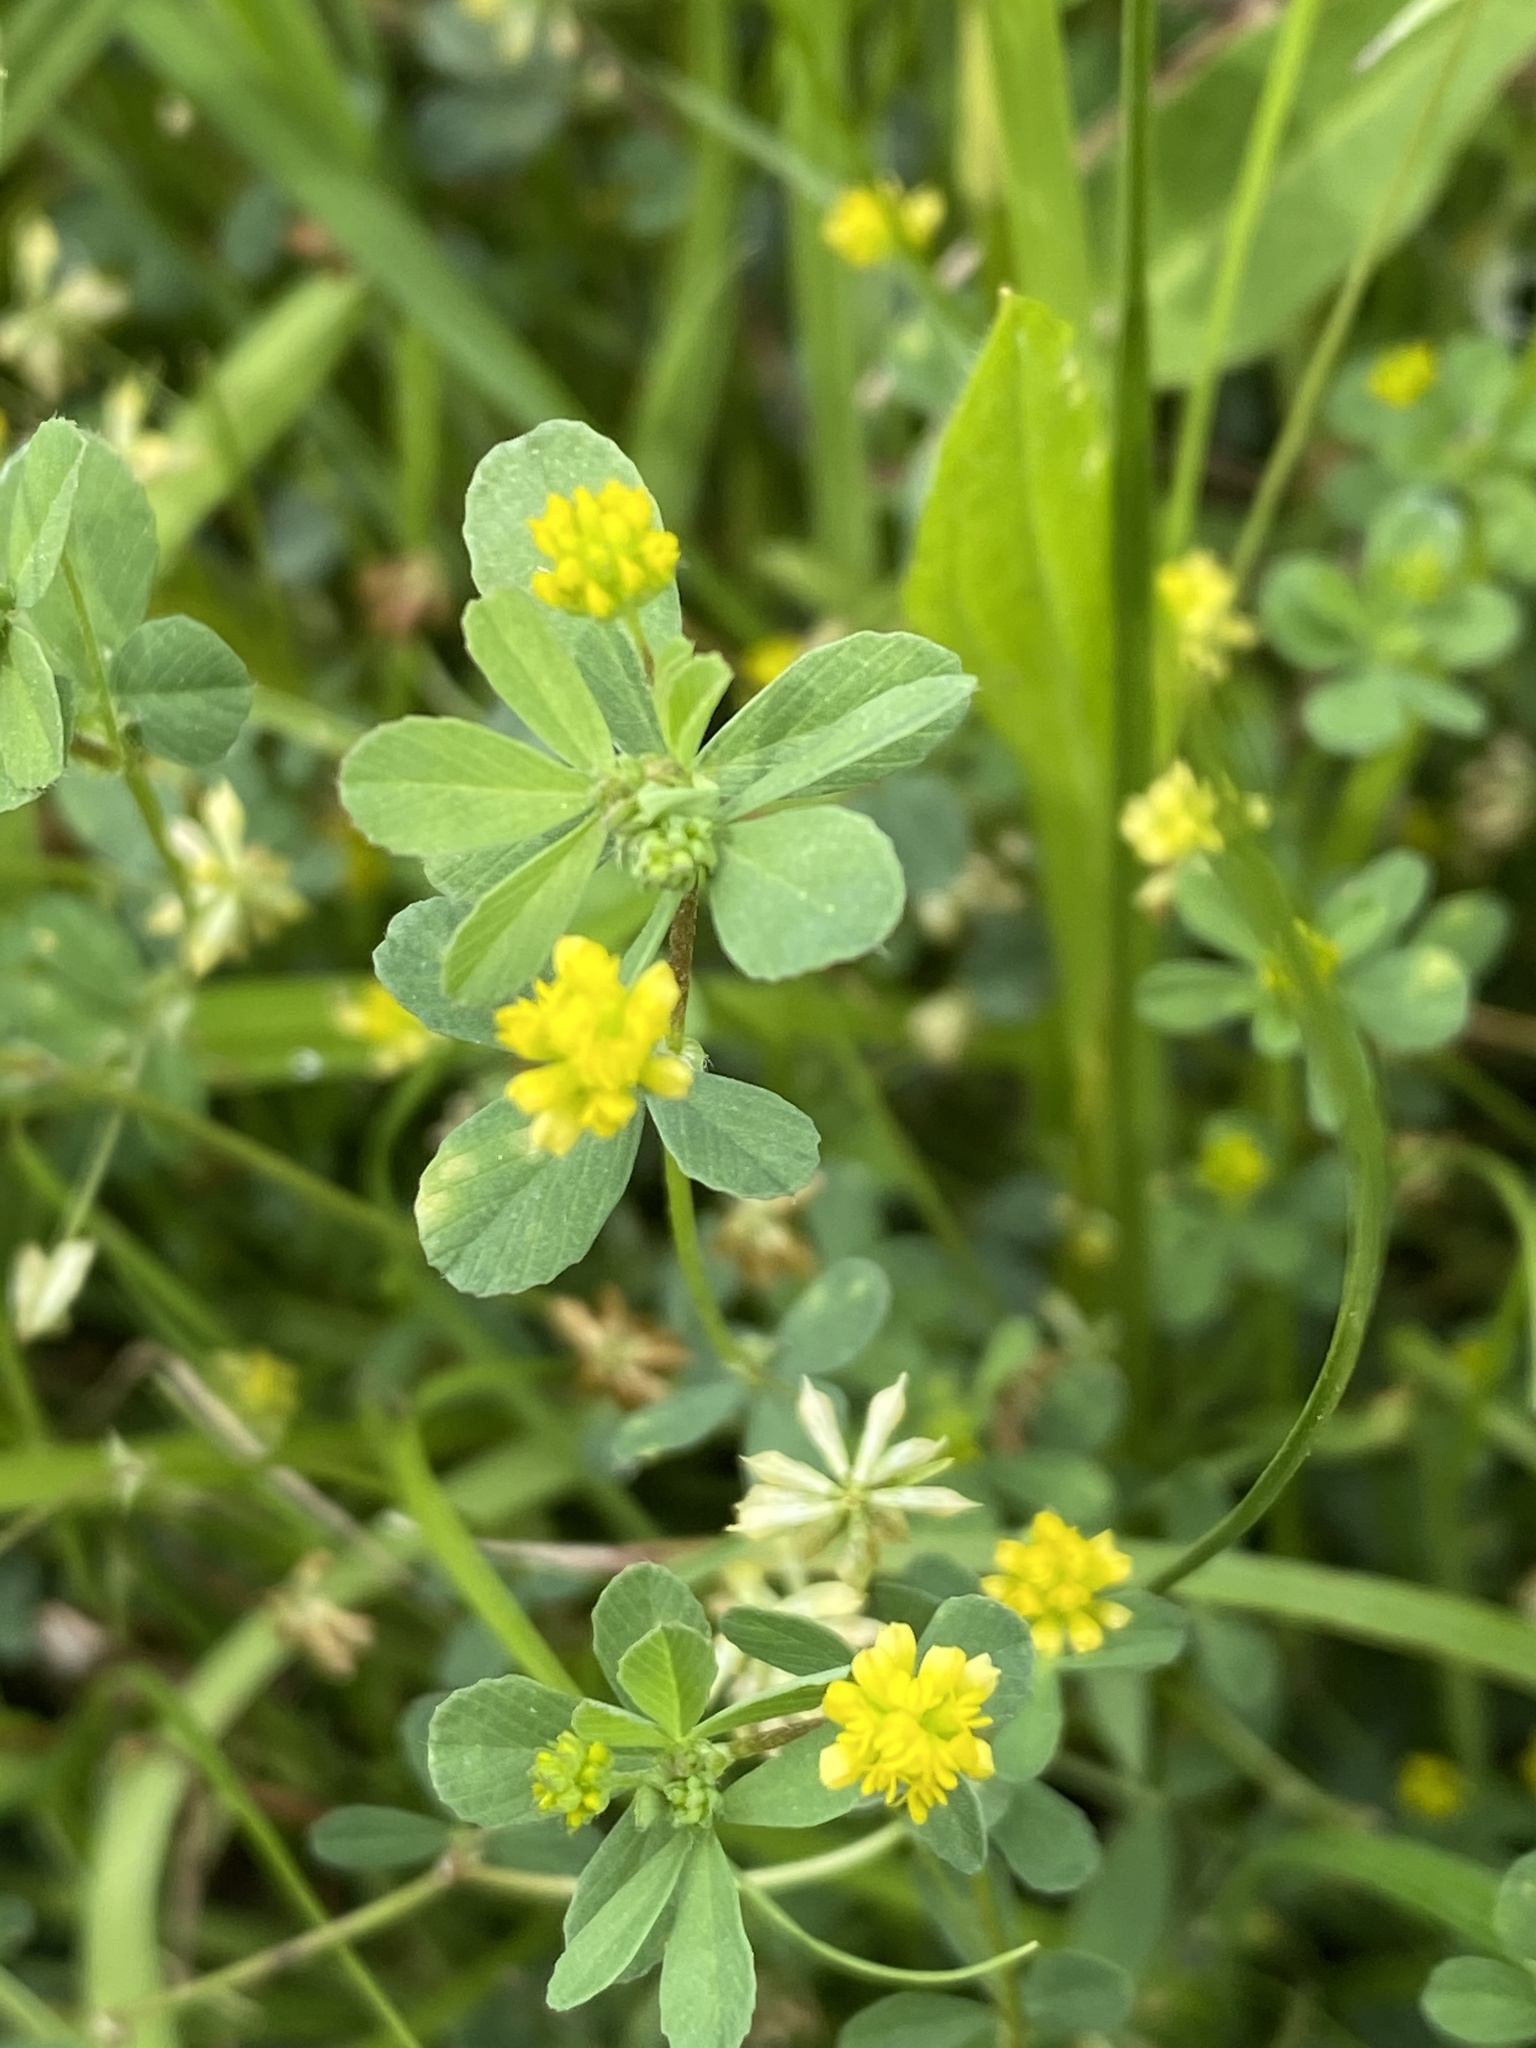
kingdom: Plantae
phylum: Tracheophyta
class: Magnoliopsida
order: Fabales
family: Fabaceae
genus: Trifolium
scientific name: Trifolium dubium
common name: Suckling clover
